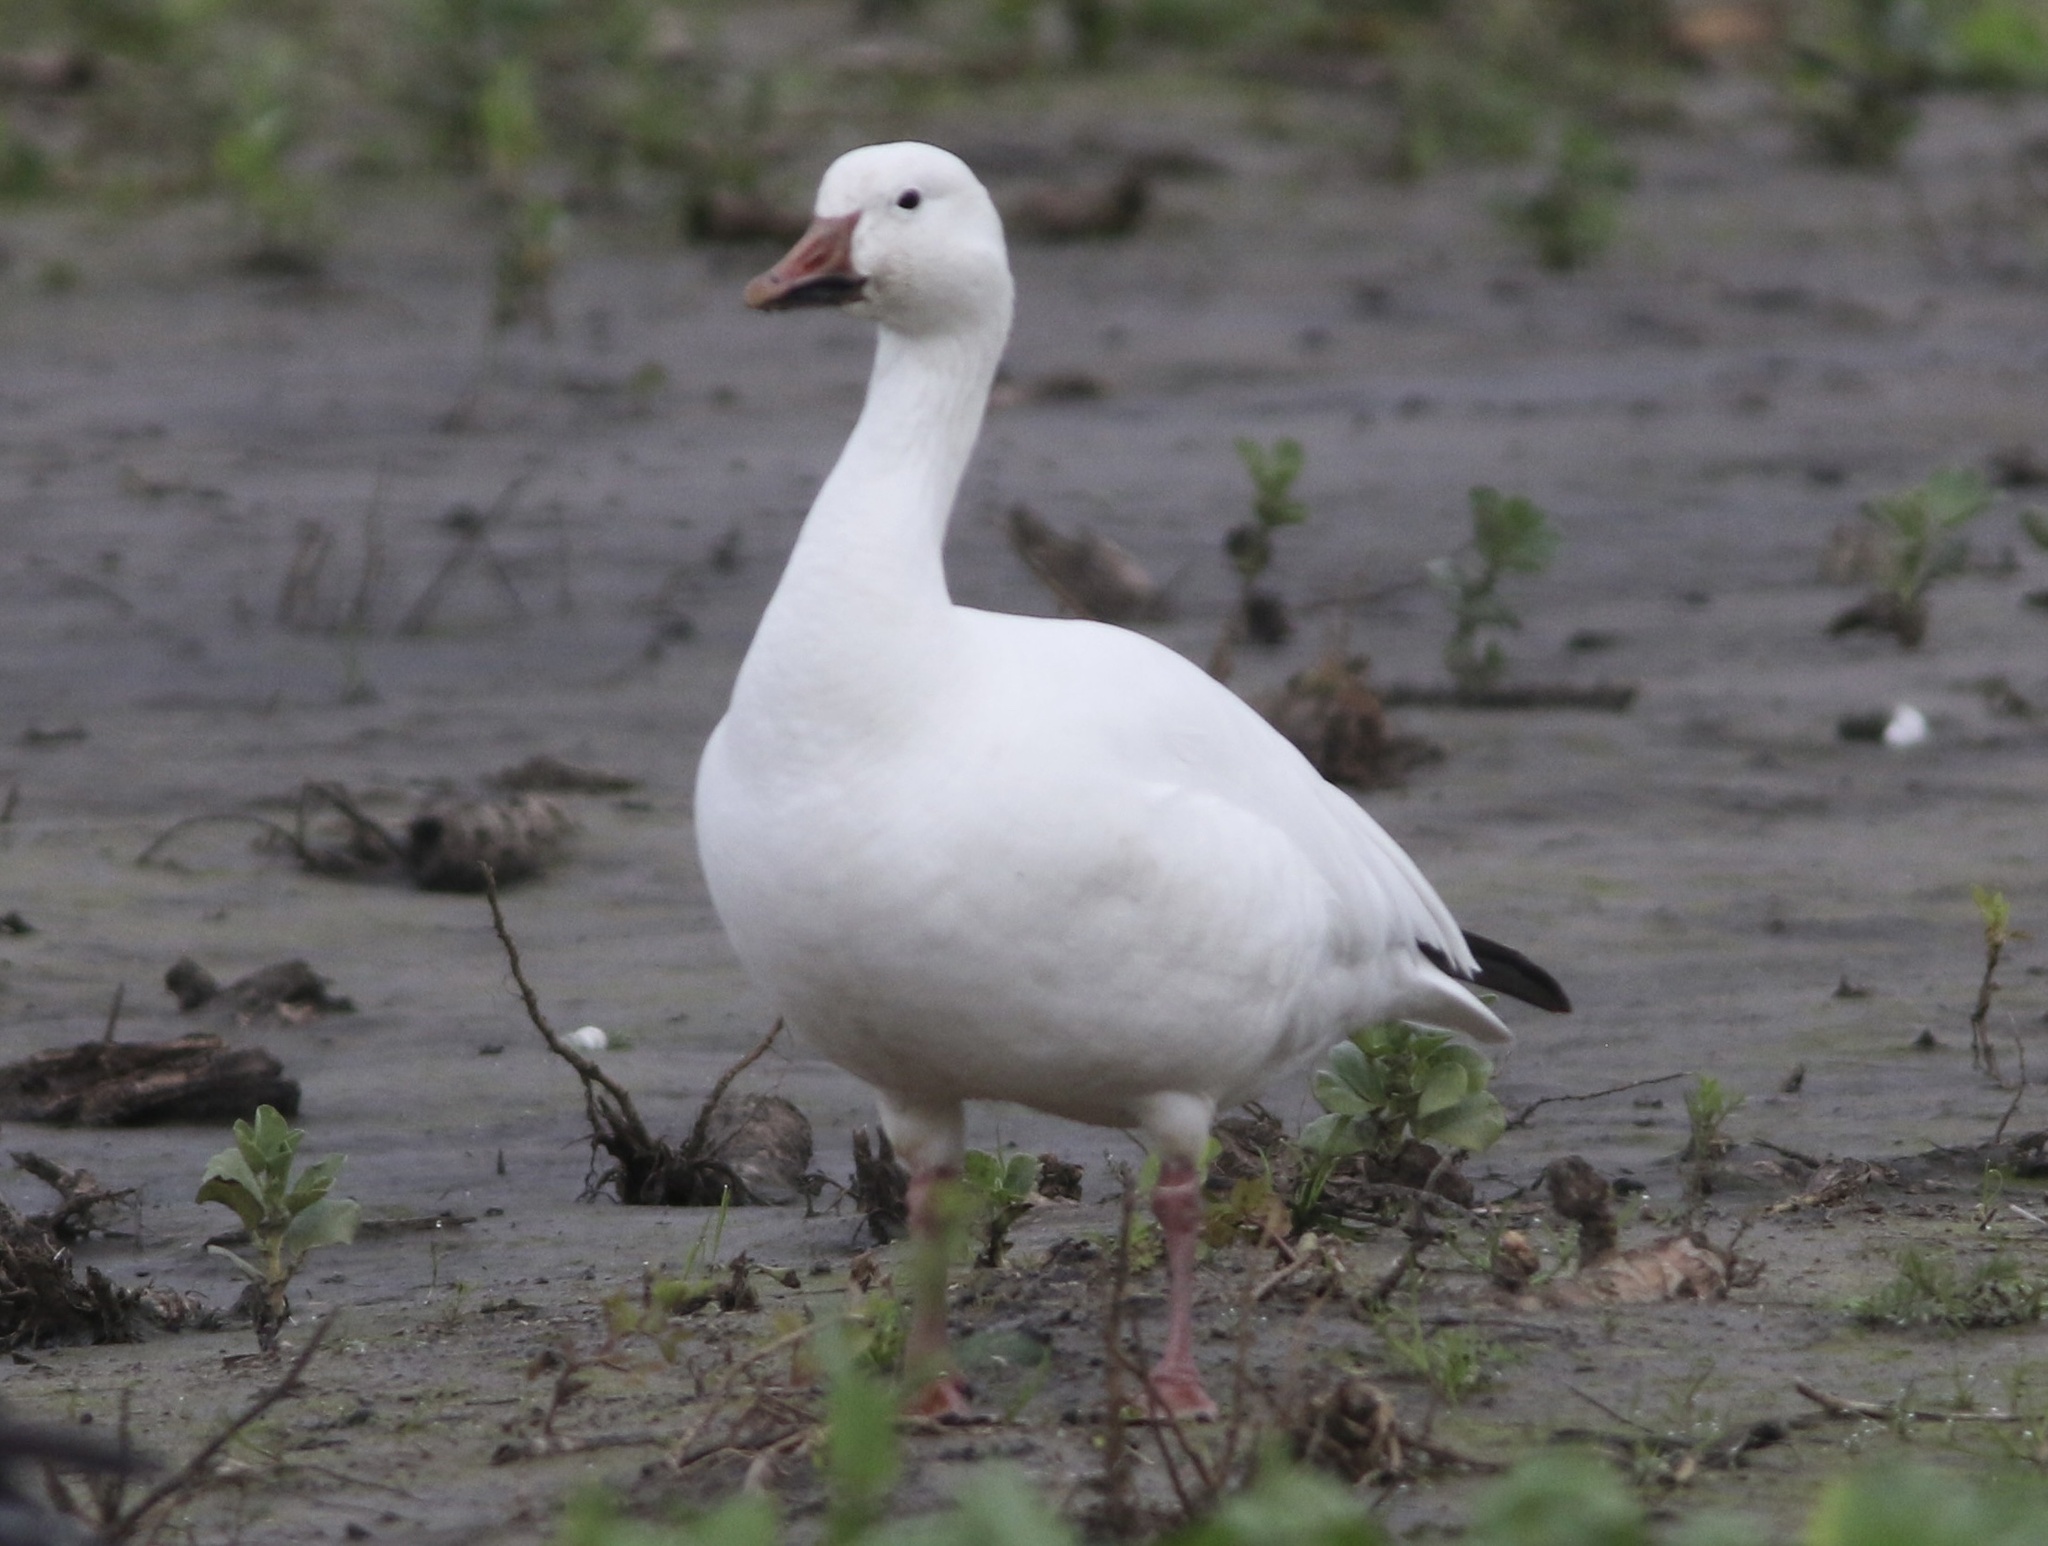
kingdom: Animalia
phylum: Chordata
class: Aves
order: Anseriformes
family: Anatidae
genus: Anser
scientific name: Anser caerulescens
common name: Snow goose
